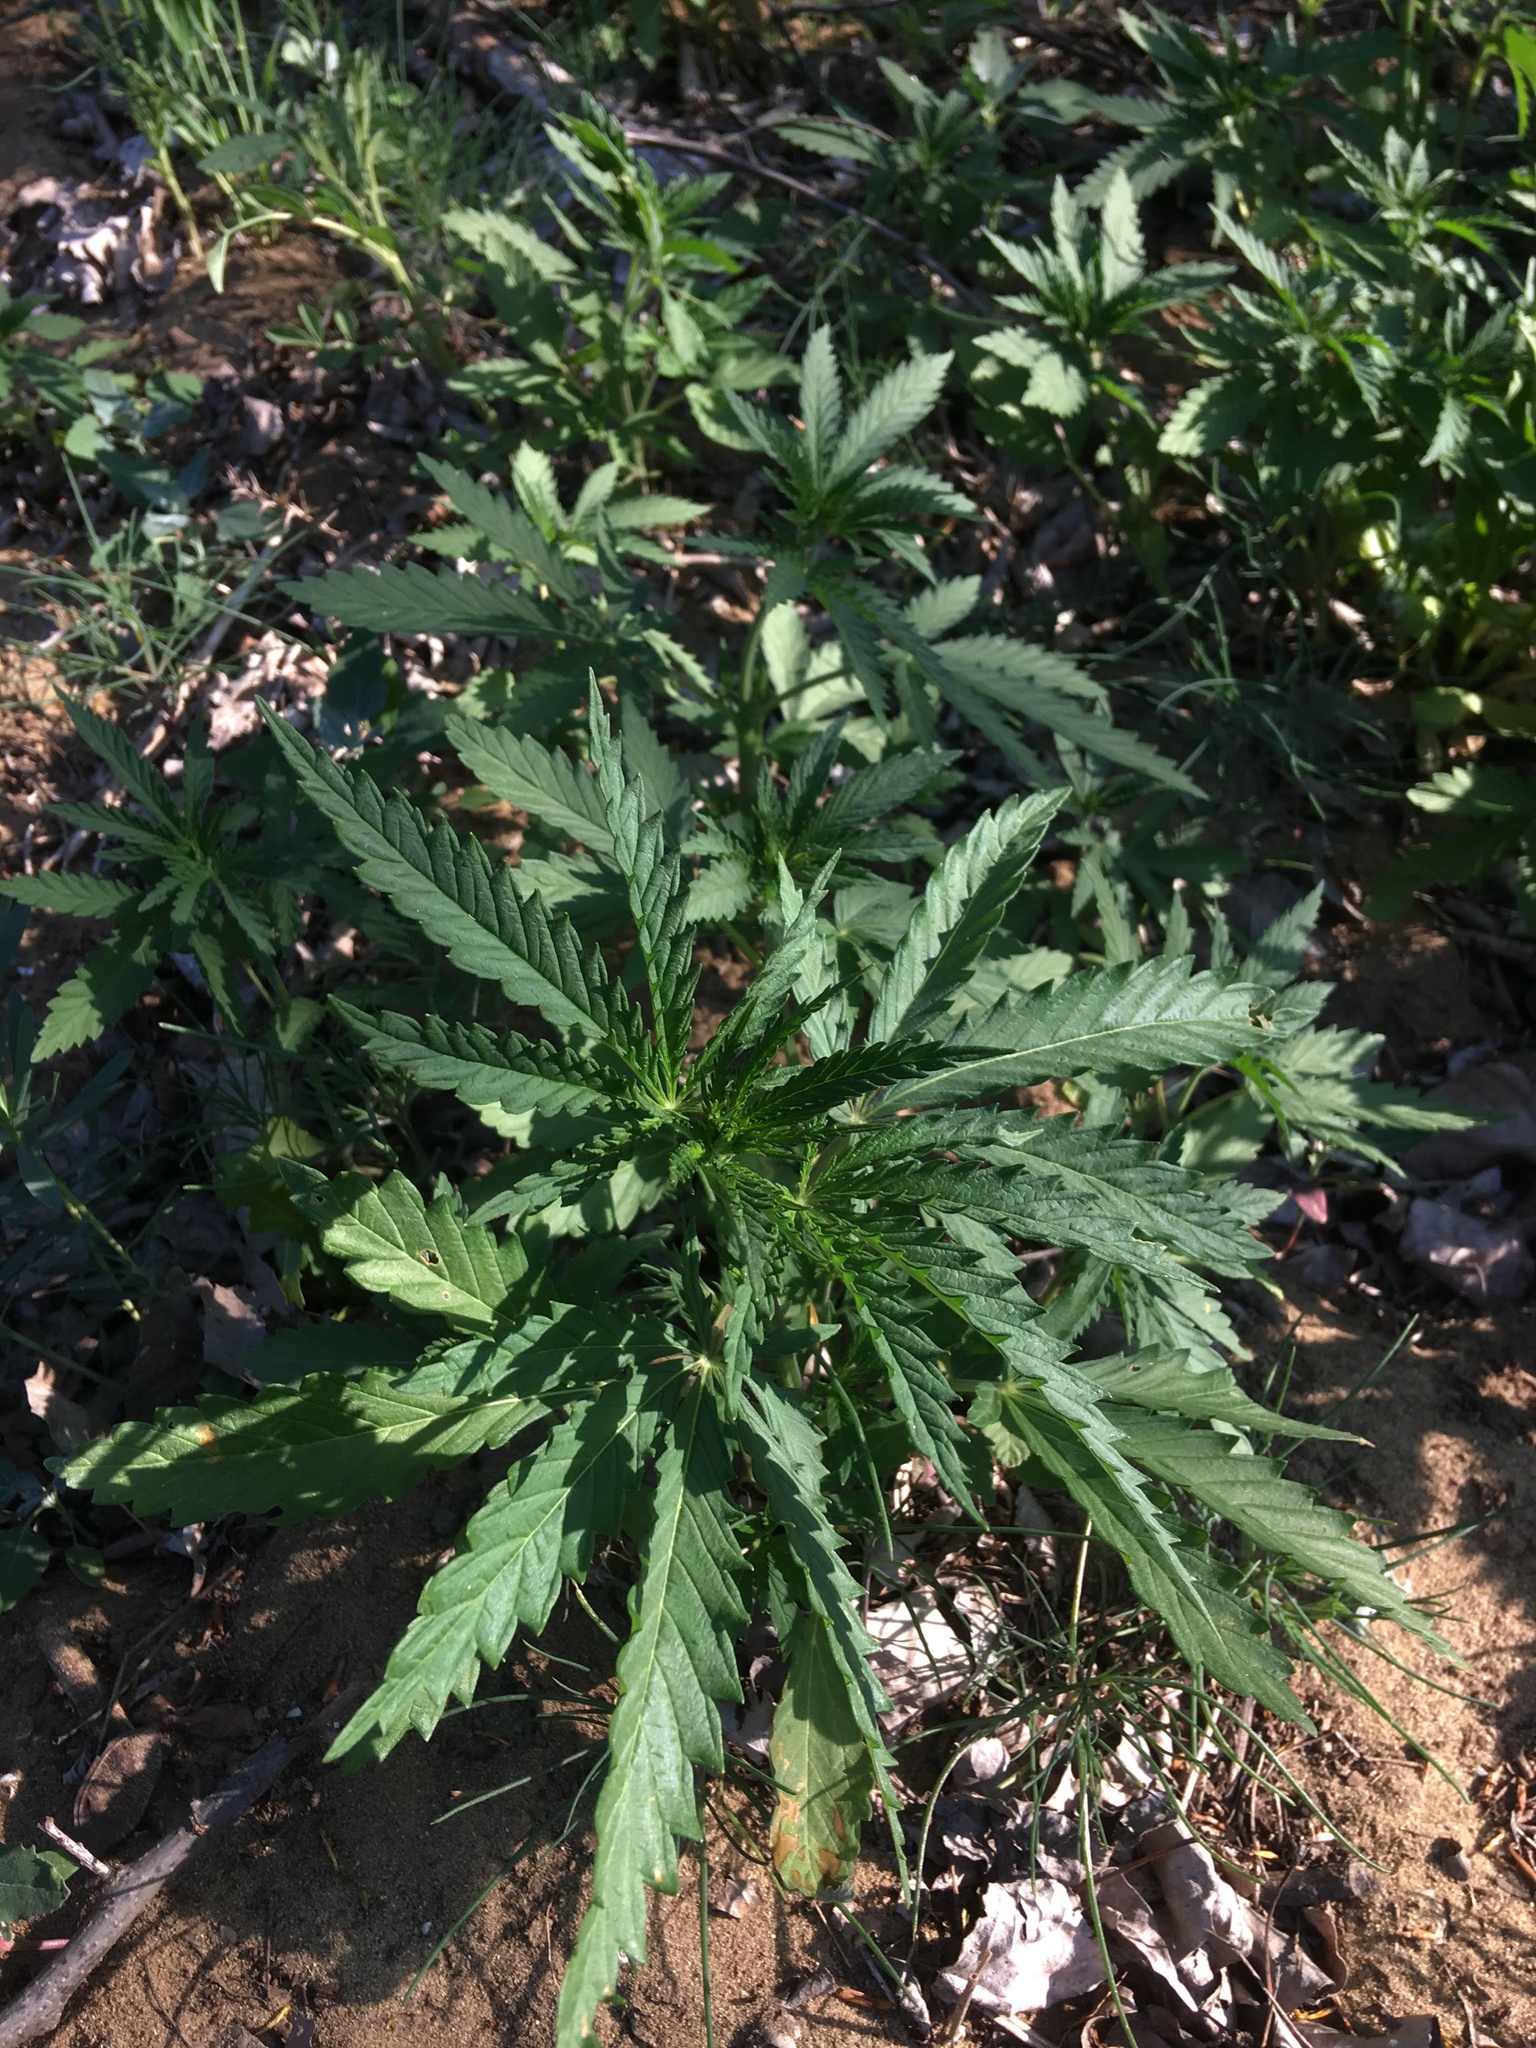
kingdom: Plantae
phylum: Tracheophyta
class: Magnoliopsida
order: Rosales
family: Cannabaceae
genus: Cannabis
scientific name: Cannabis sativa
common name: Hemp
